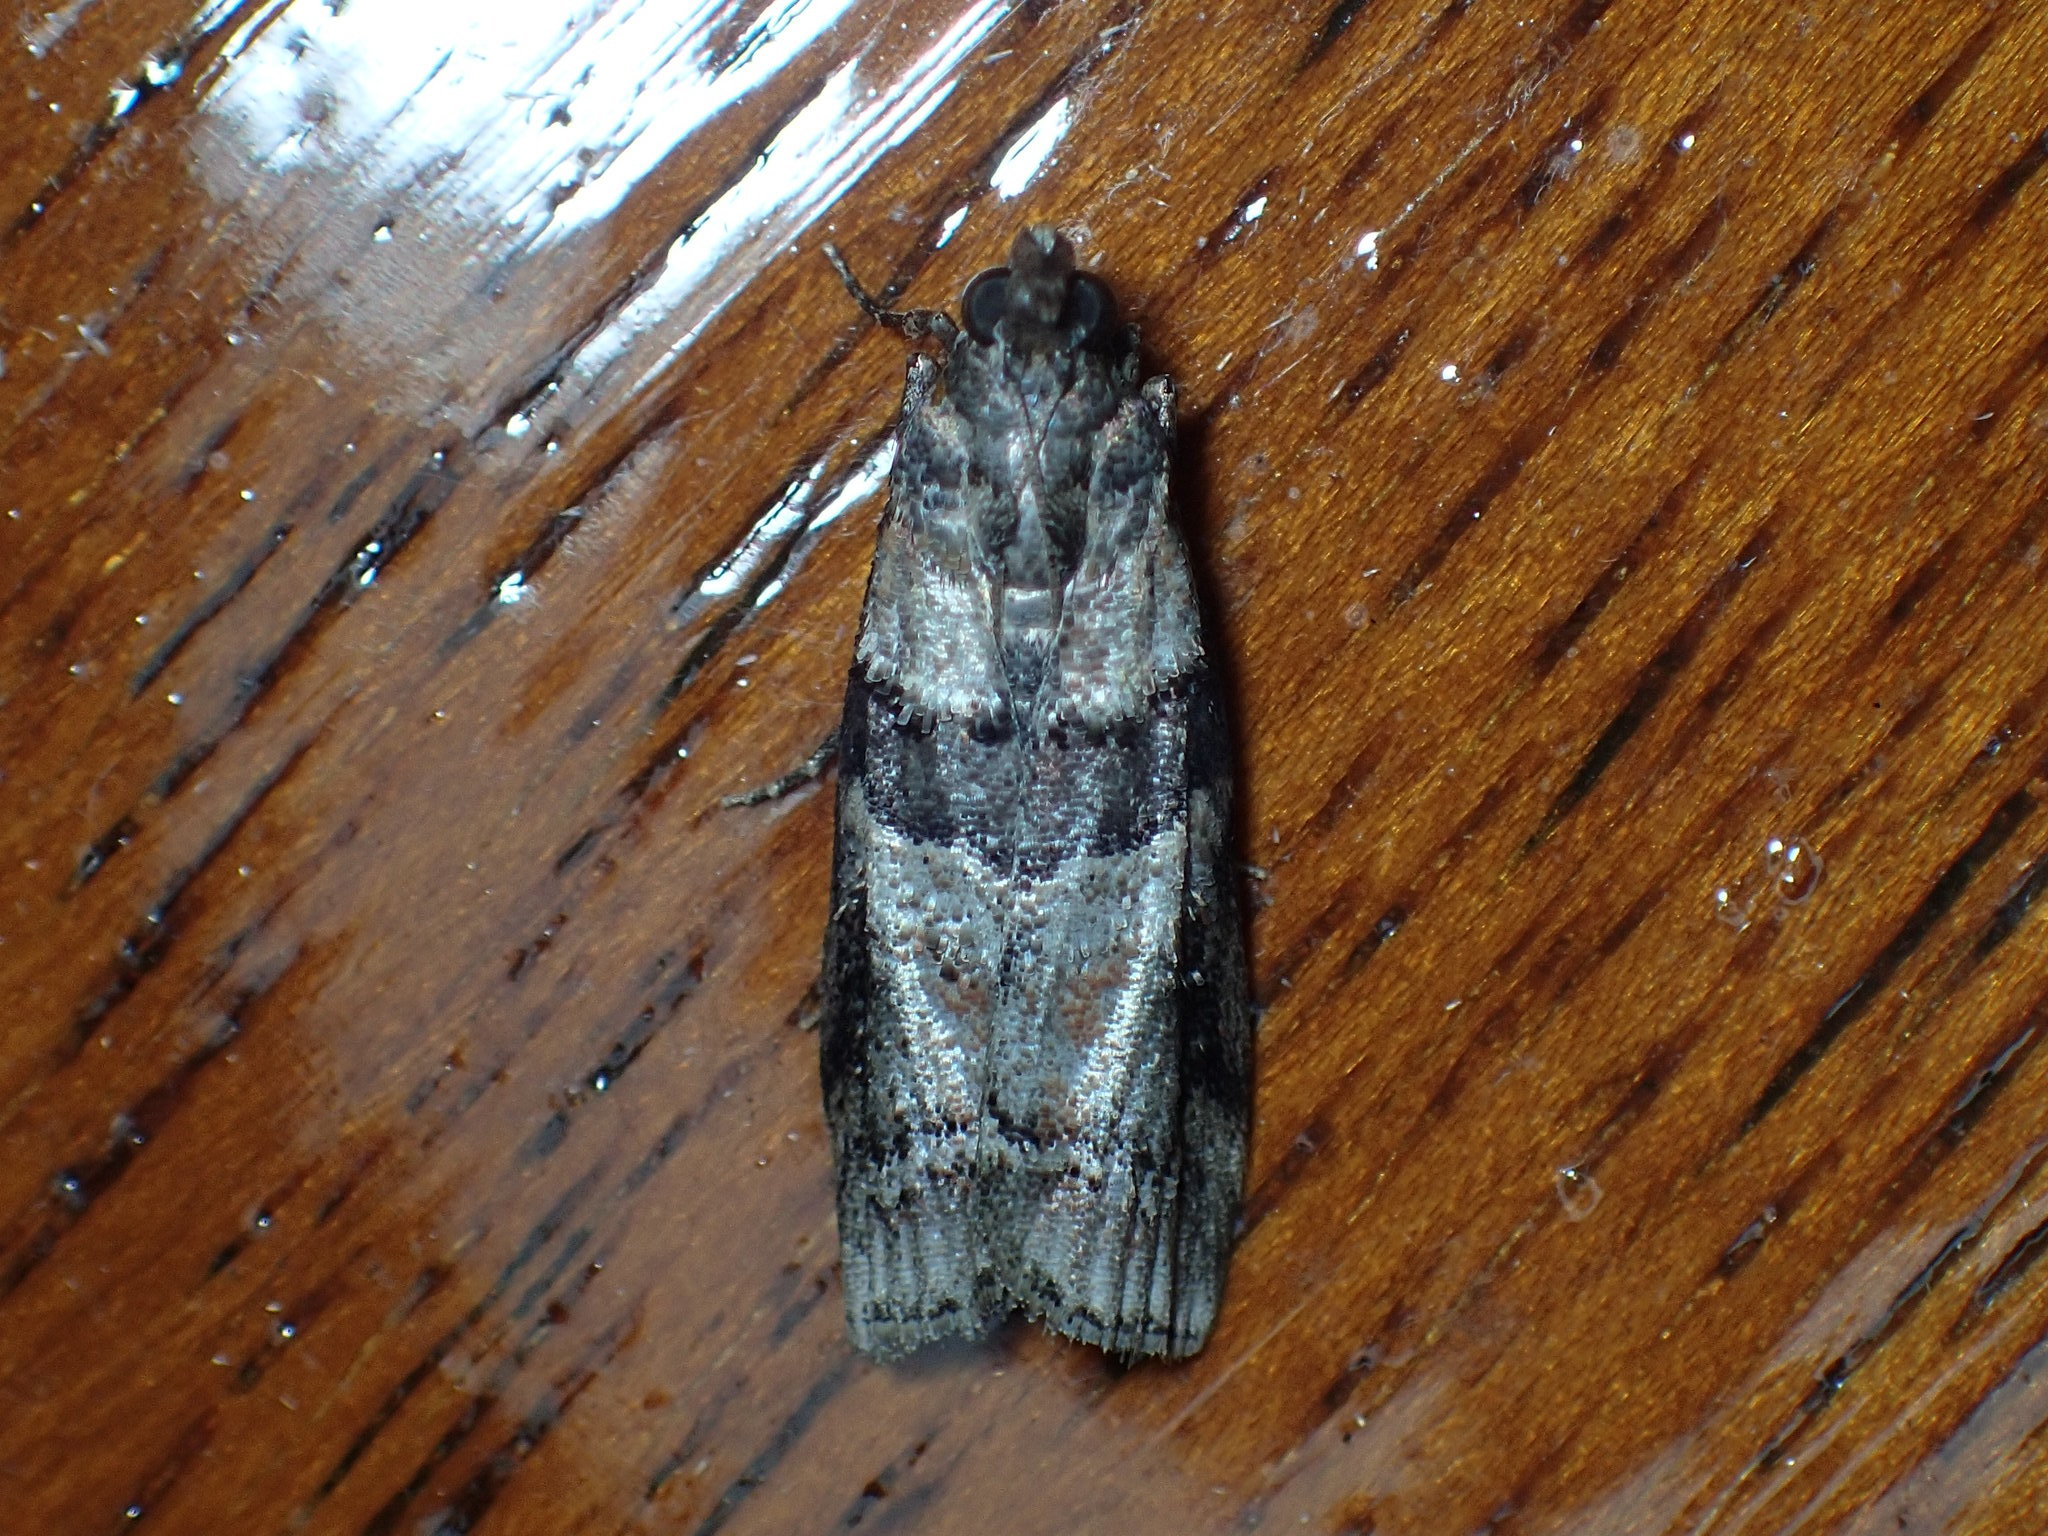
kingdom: Animalia
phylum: Arthropoda
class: Insecta
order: Lepidoptera
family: Pyralidae
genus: Dioryctria
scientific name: Dioryctria clarioralis
